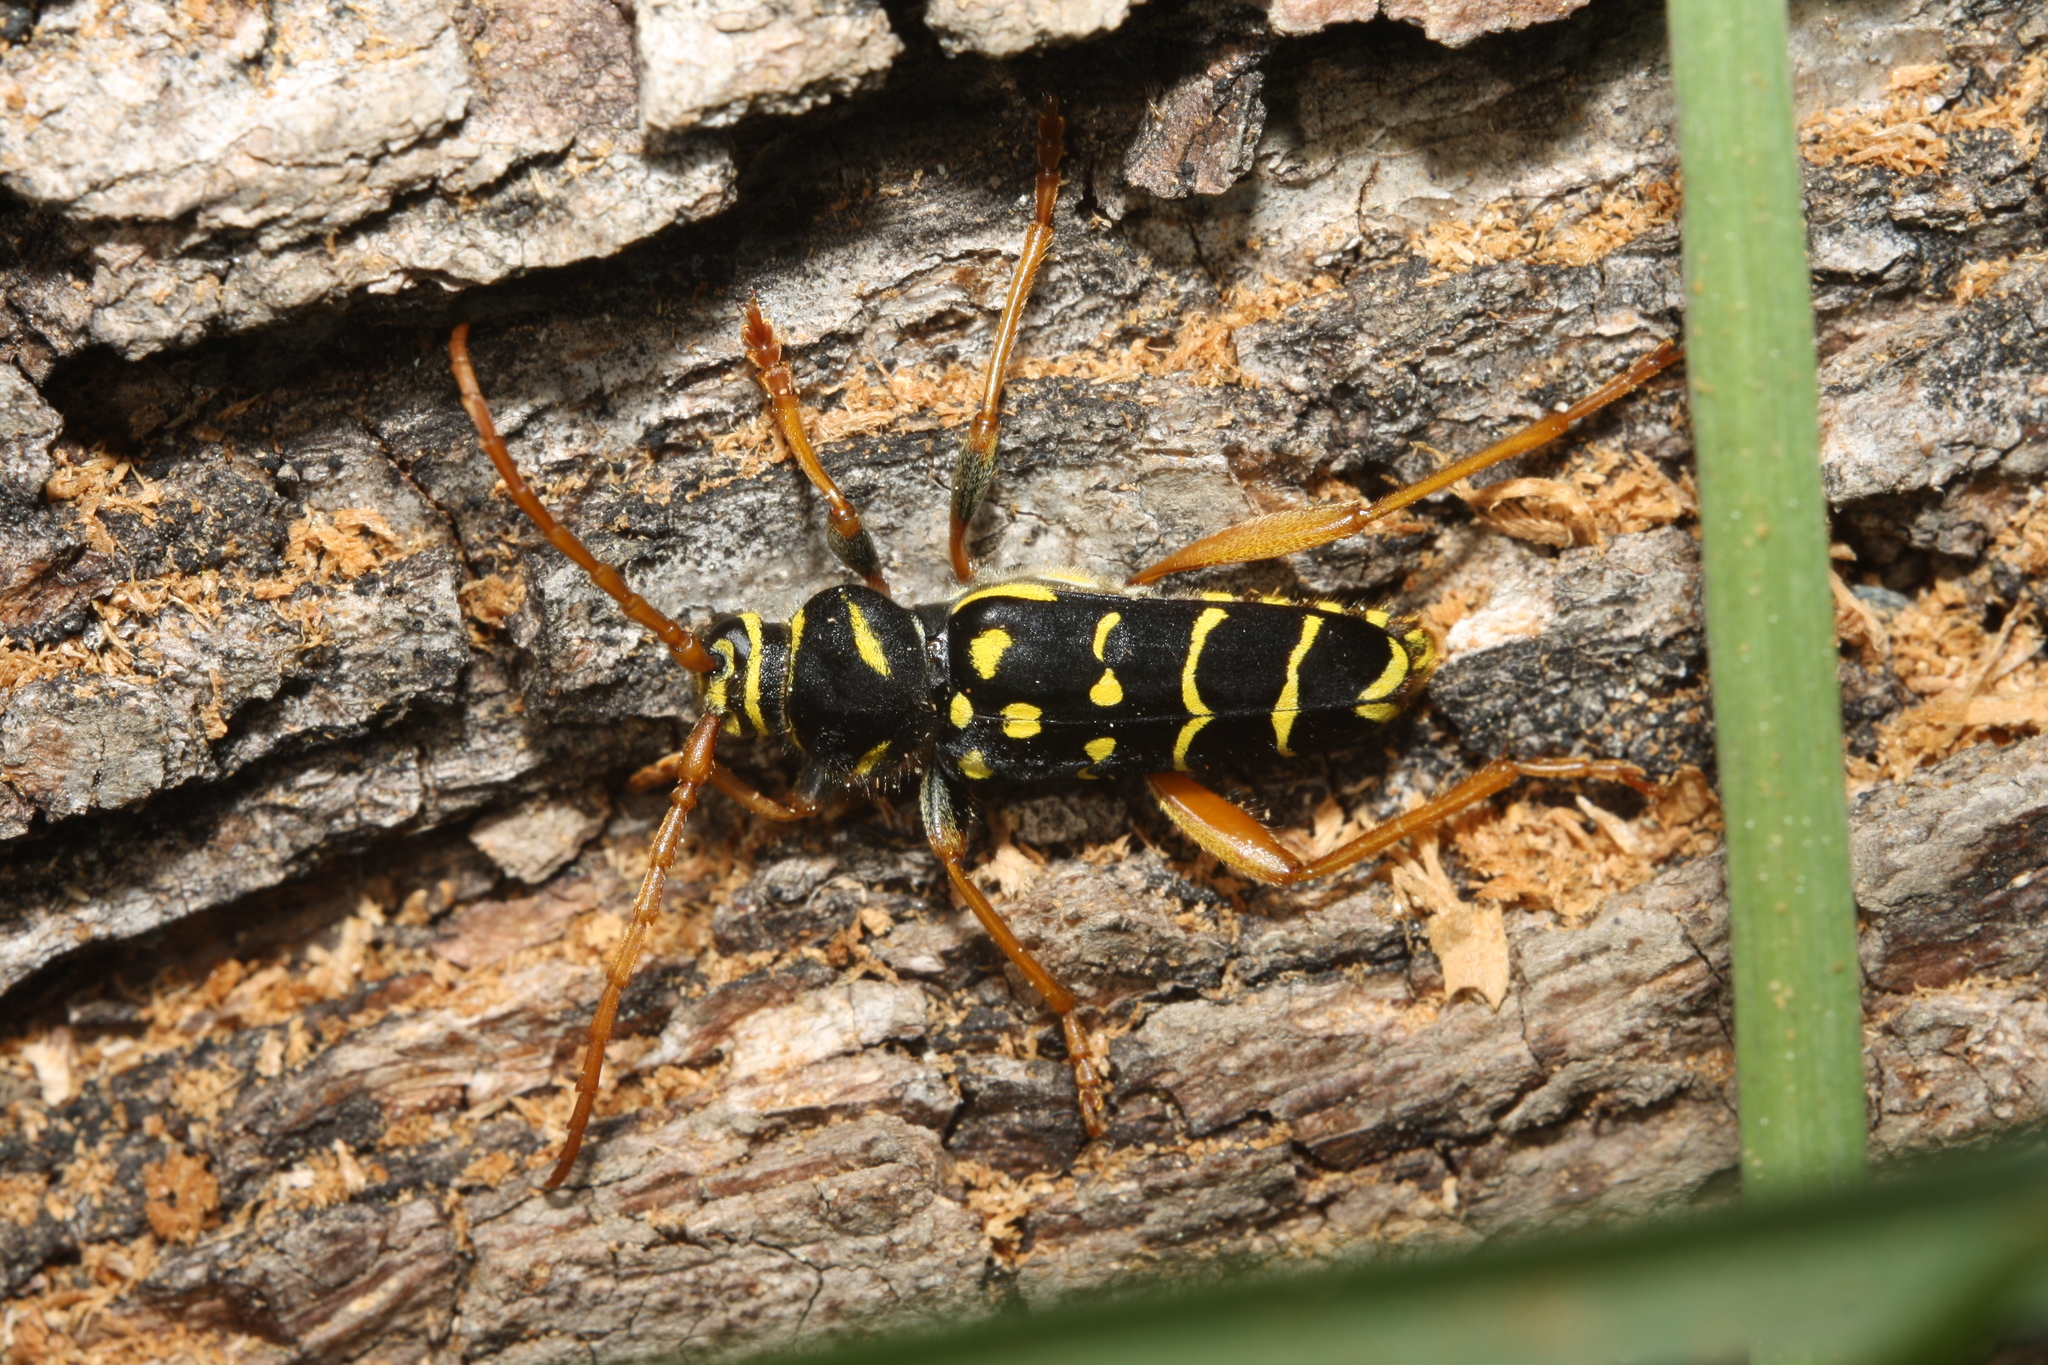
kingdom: Animalia
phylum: Arthropoda
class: Insecta
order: Coleoptera
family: Cerambycidae
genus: Plagionotus
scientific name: Plagionotus arcuatus
